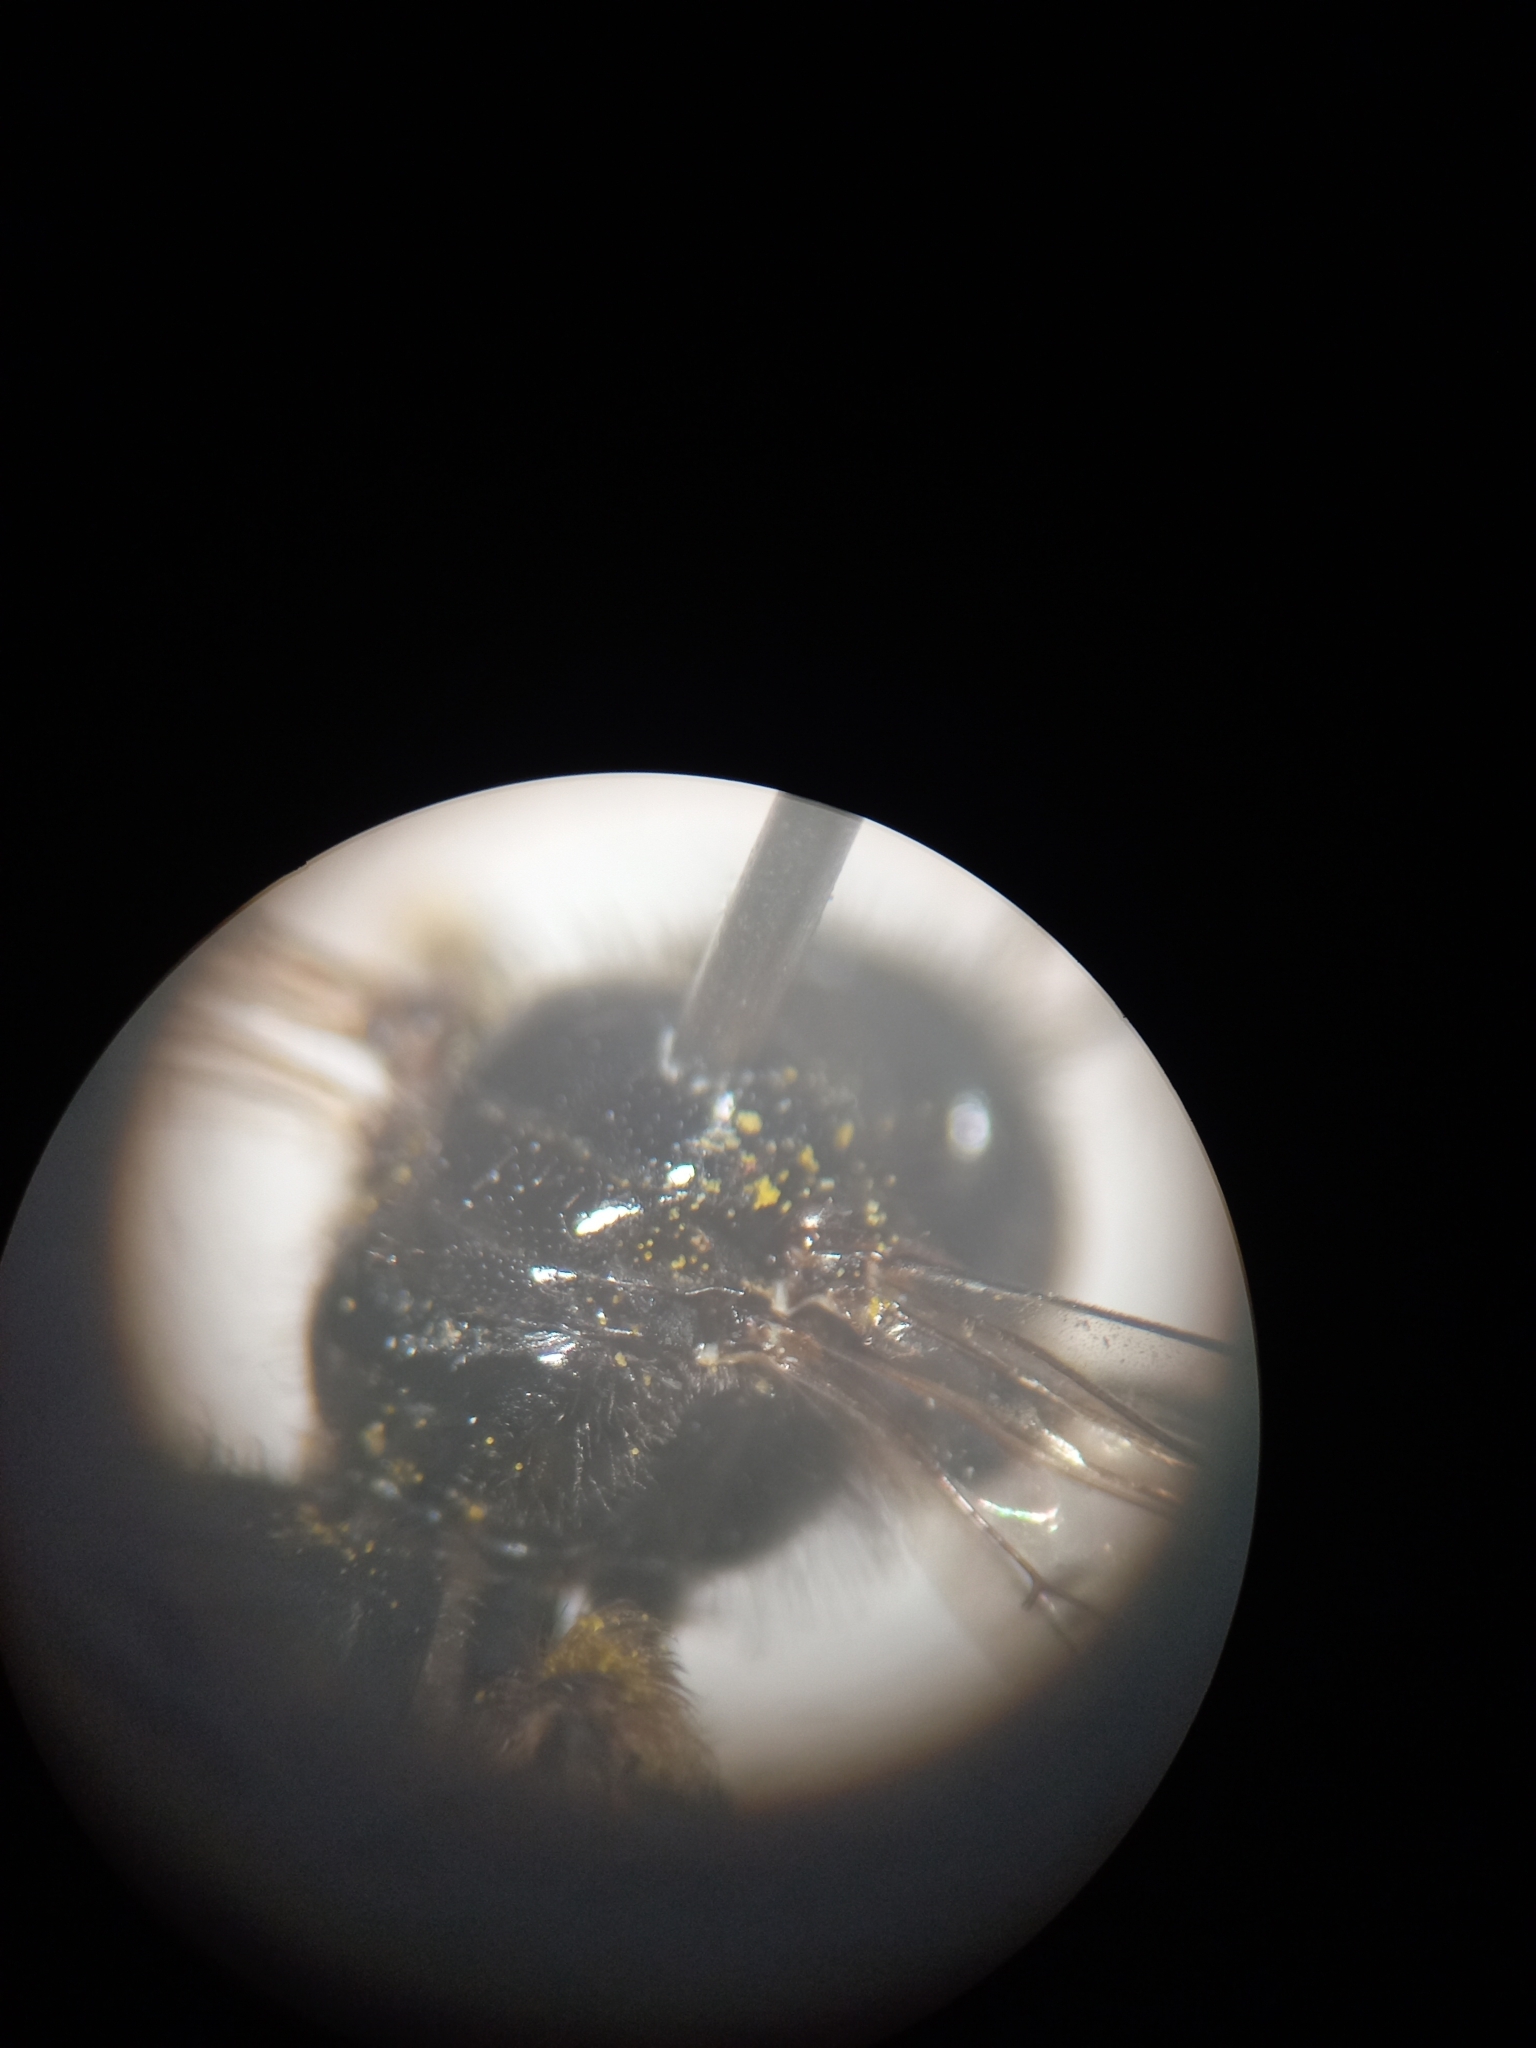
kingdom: Animalia
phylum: Arthropoda
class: Insecta
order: Hymenoptera
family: Andrenidae
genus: Panurgus
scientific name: Panurgus calcaratus
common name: Small shaggy bee
